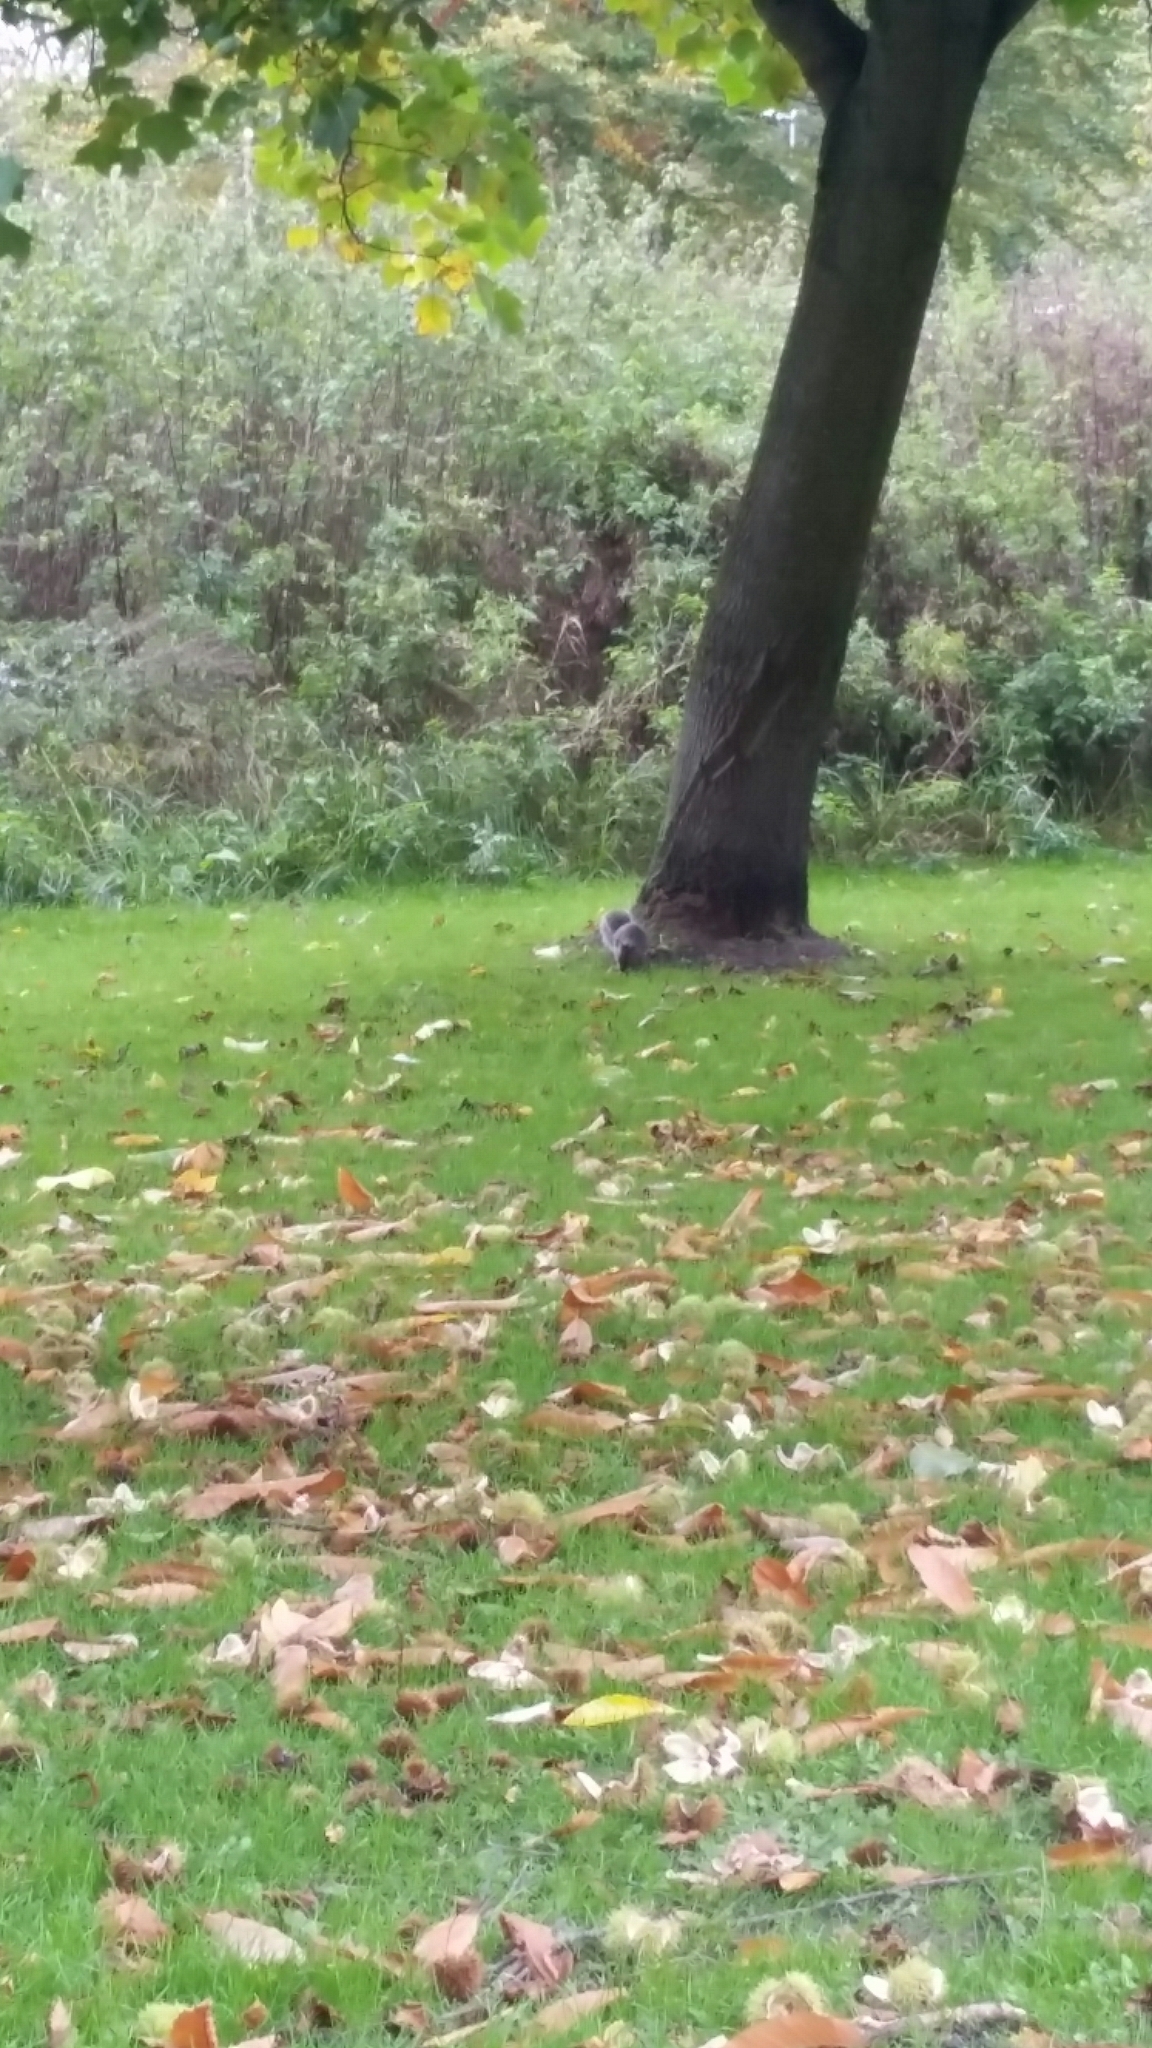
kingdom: Animalia
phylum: Chordata
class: Mammalia
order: Rodentia
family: Sciuridae
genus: Sciurus
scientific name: Sciurus carolinensis
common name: Eastern gray squirrel
